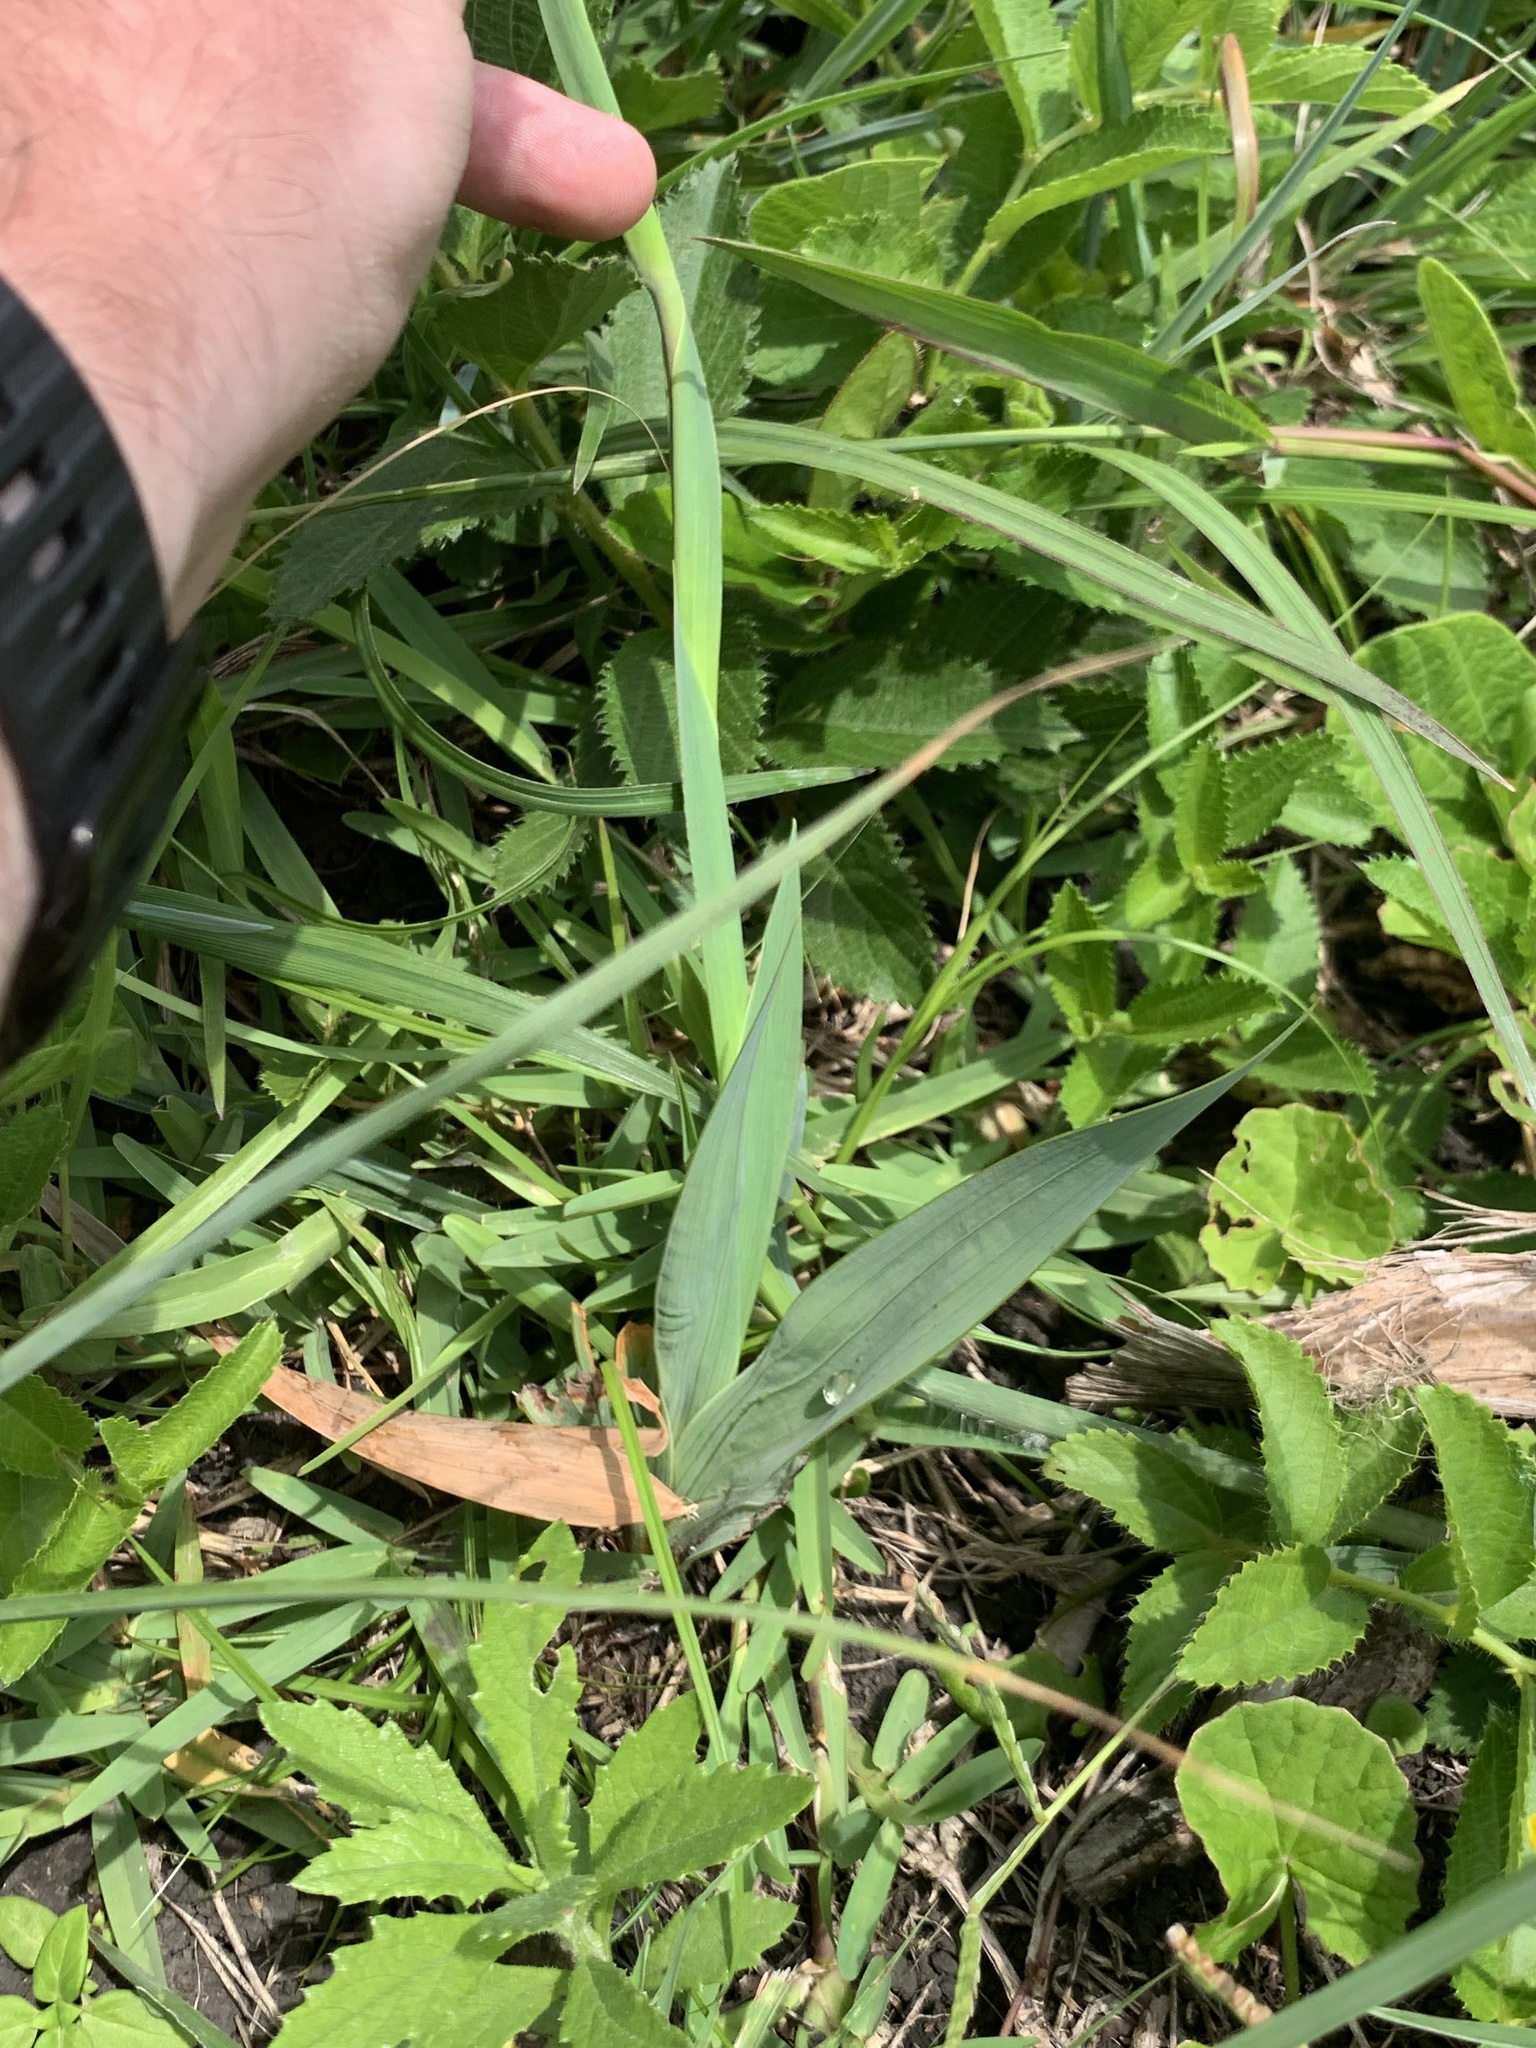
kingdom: Plantae
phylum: Tracheophyta
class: Liliopsida
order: Asparagales
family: Iridaceae
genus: Gladiolus
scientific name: Gladiolus oppositiflorus
